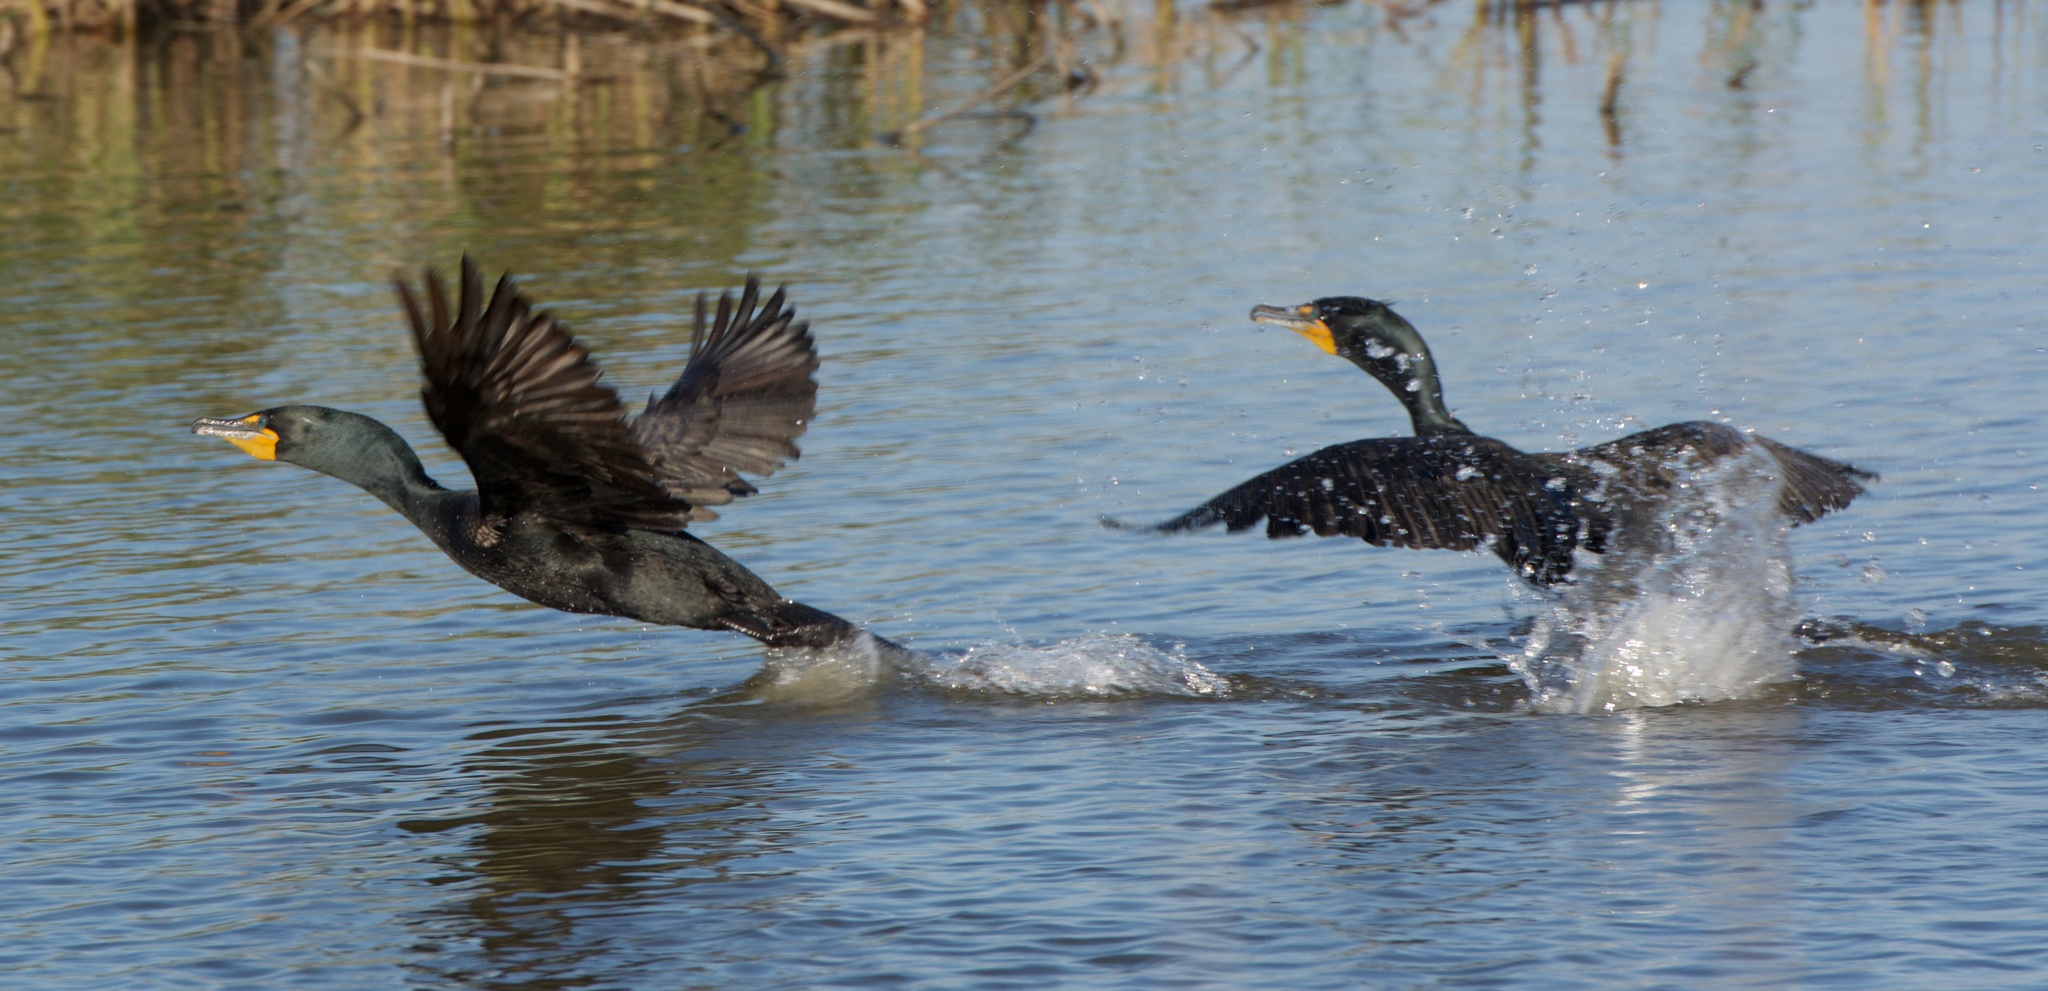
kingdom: Animalia
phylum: Chordata
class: Aves
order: Suliformes
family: Phalacrocoracidae
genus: Phalacrocorax
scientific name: Phalacrocorax auritus
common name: Double-crested cormorant
